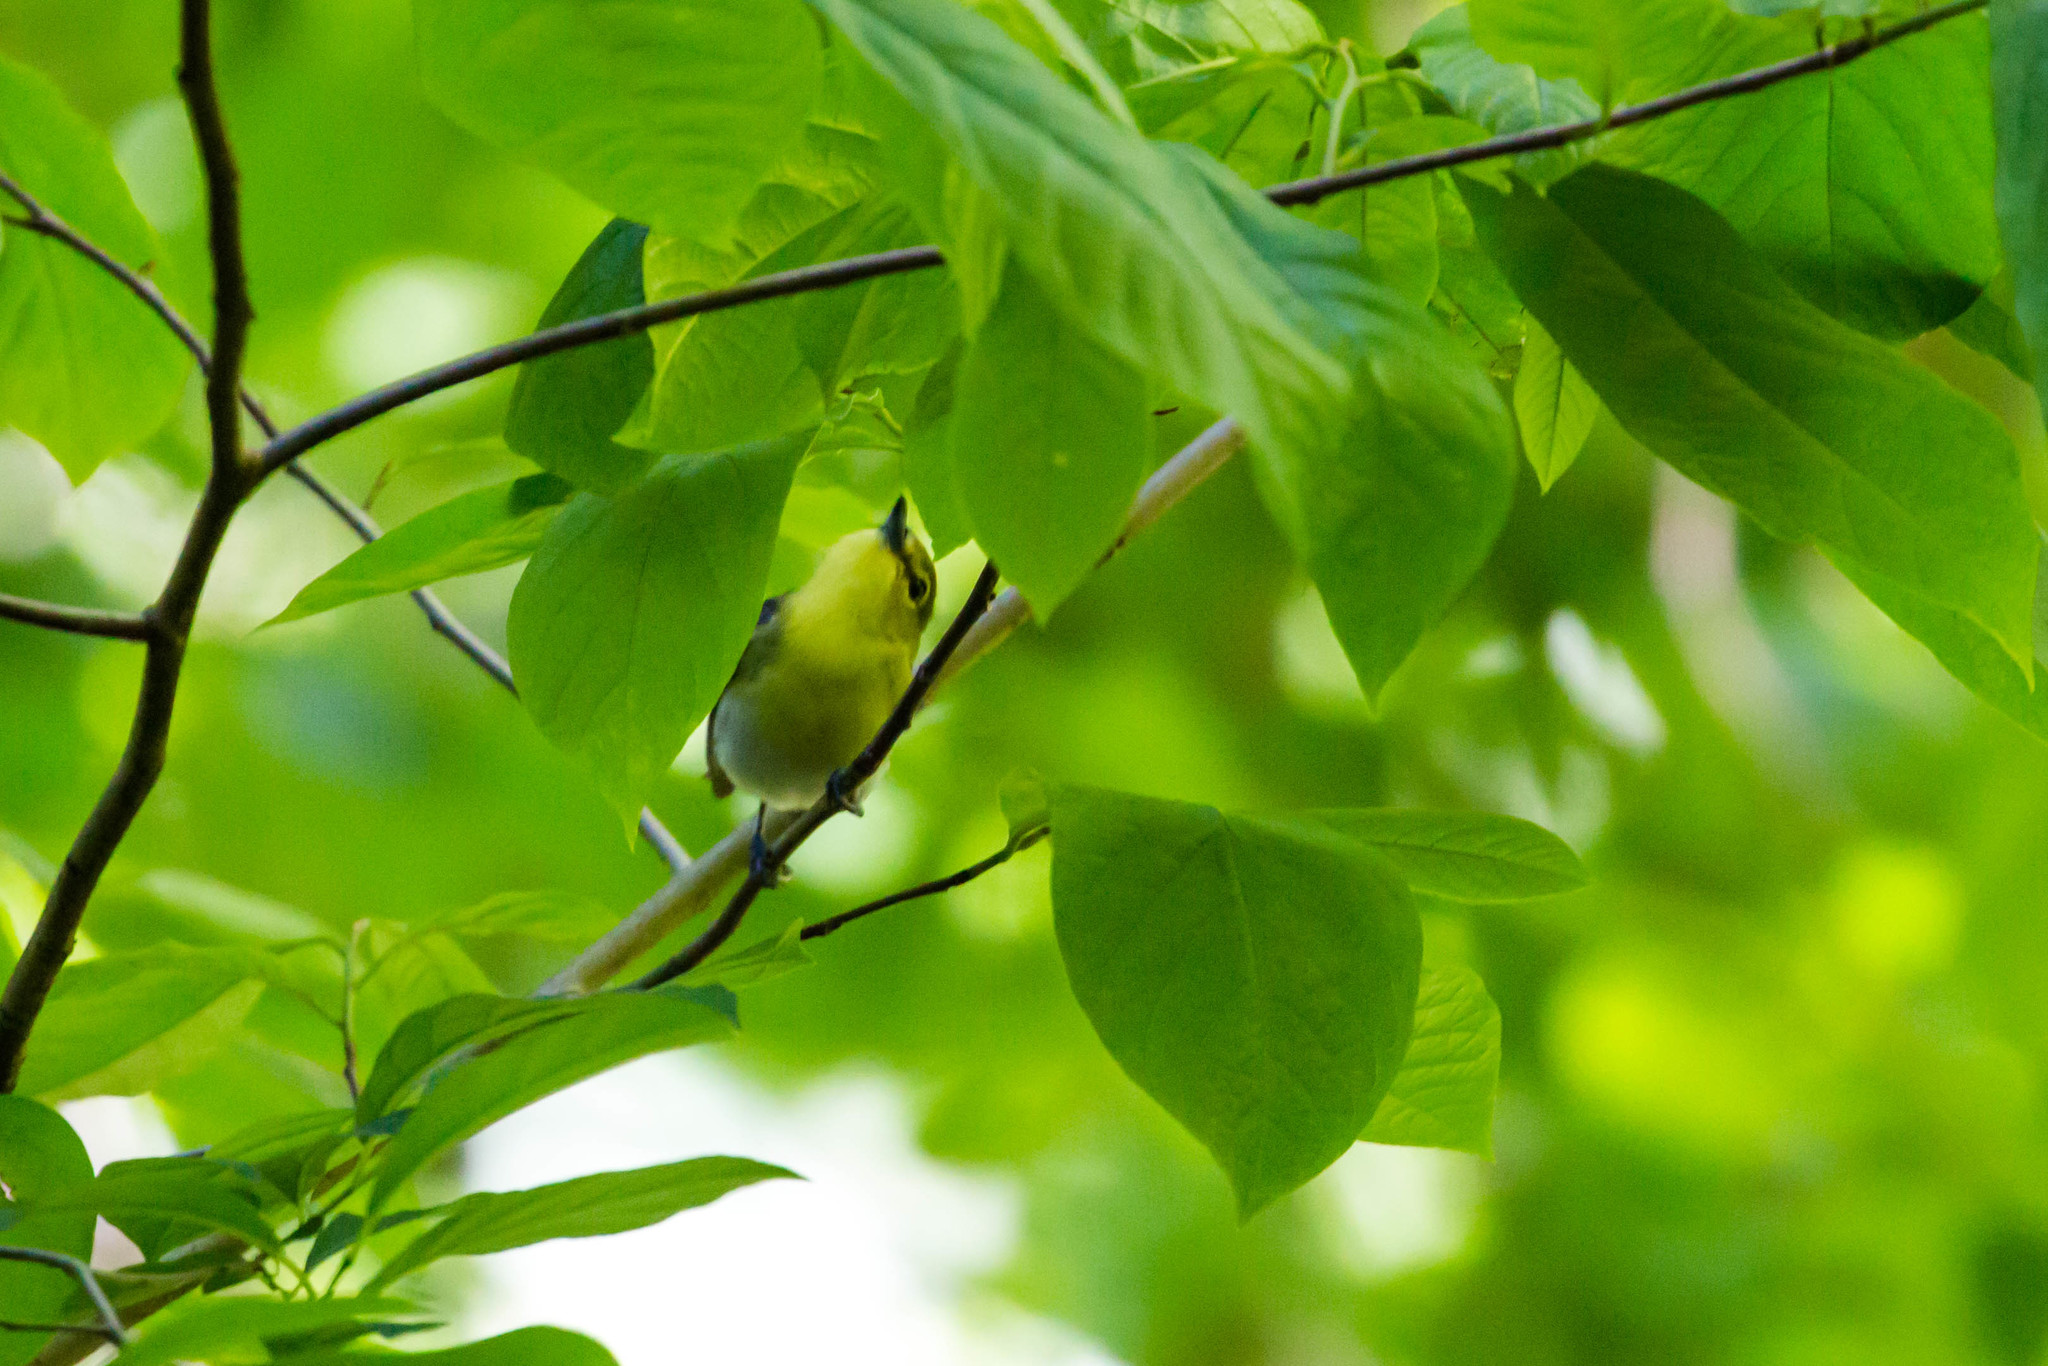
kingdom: Animalia
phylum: Chordata
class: Aves
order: Passeriformes
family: Vireonidae
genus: Vireo
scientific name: Vireo flavifrons
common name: Yellow-throated vireo
